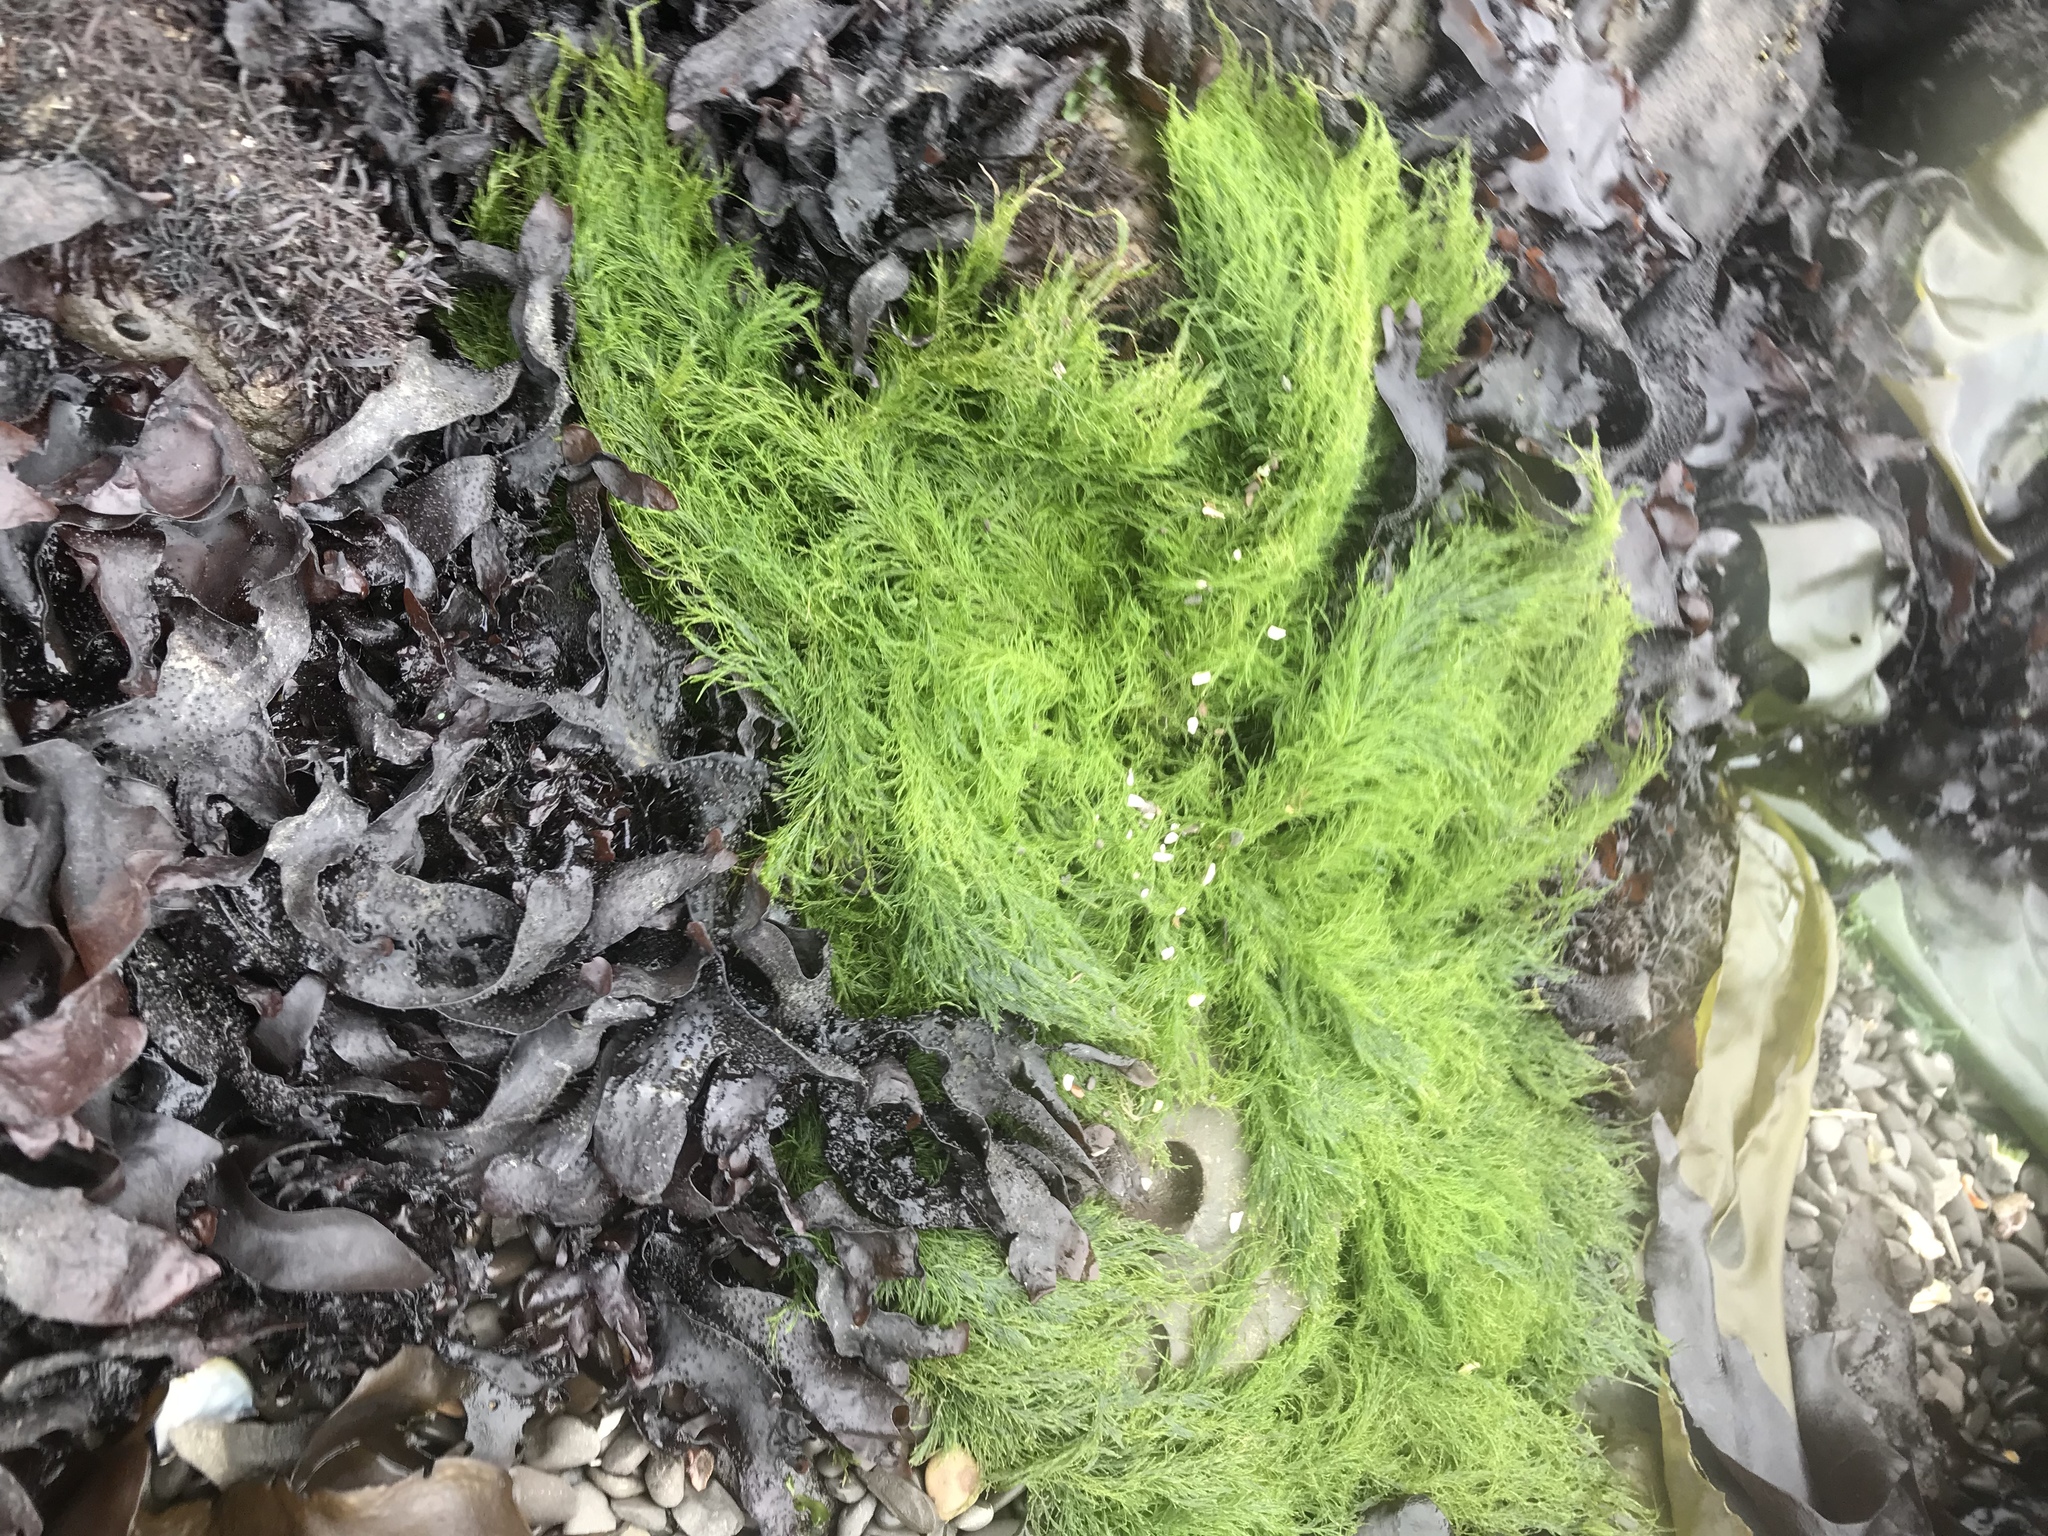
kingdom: Plantae
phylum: Chlorophyta
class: Ulvophyceae
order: Ulotrichales
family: Ulotrichaceae
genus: Acrosiphonia
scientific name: Acrosiphonia
